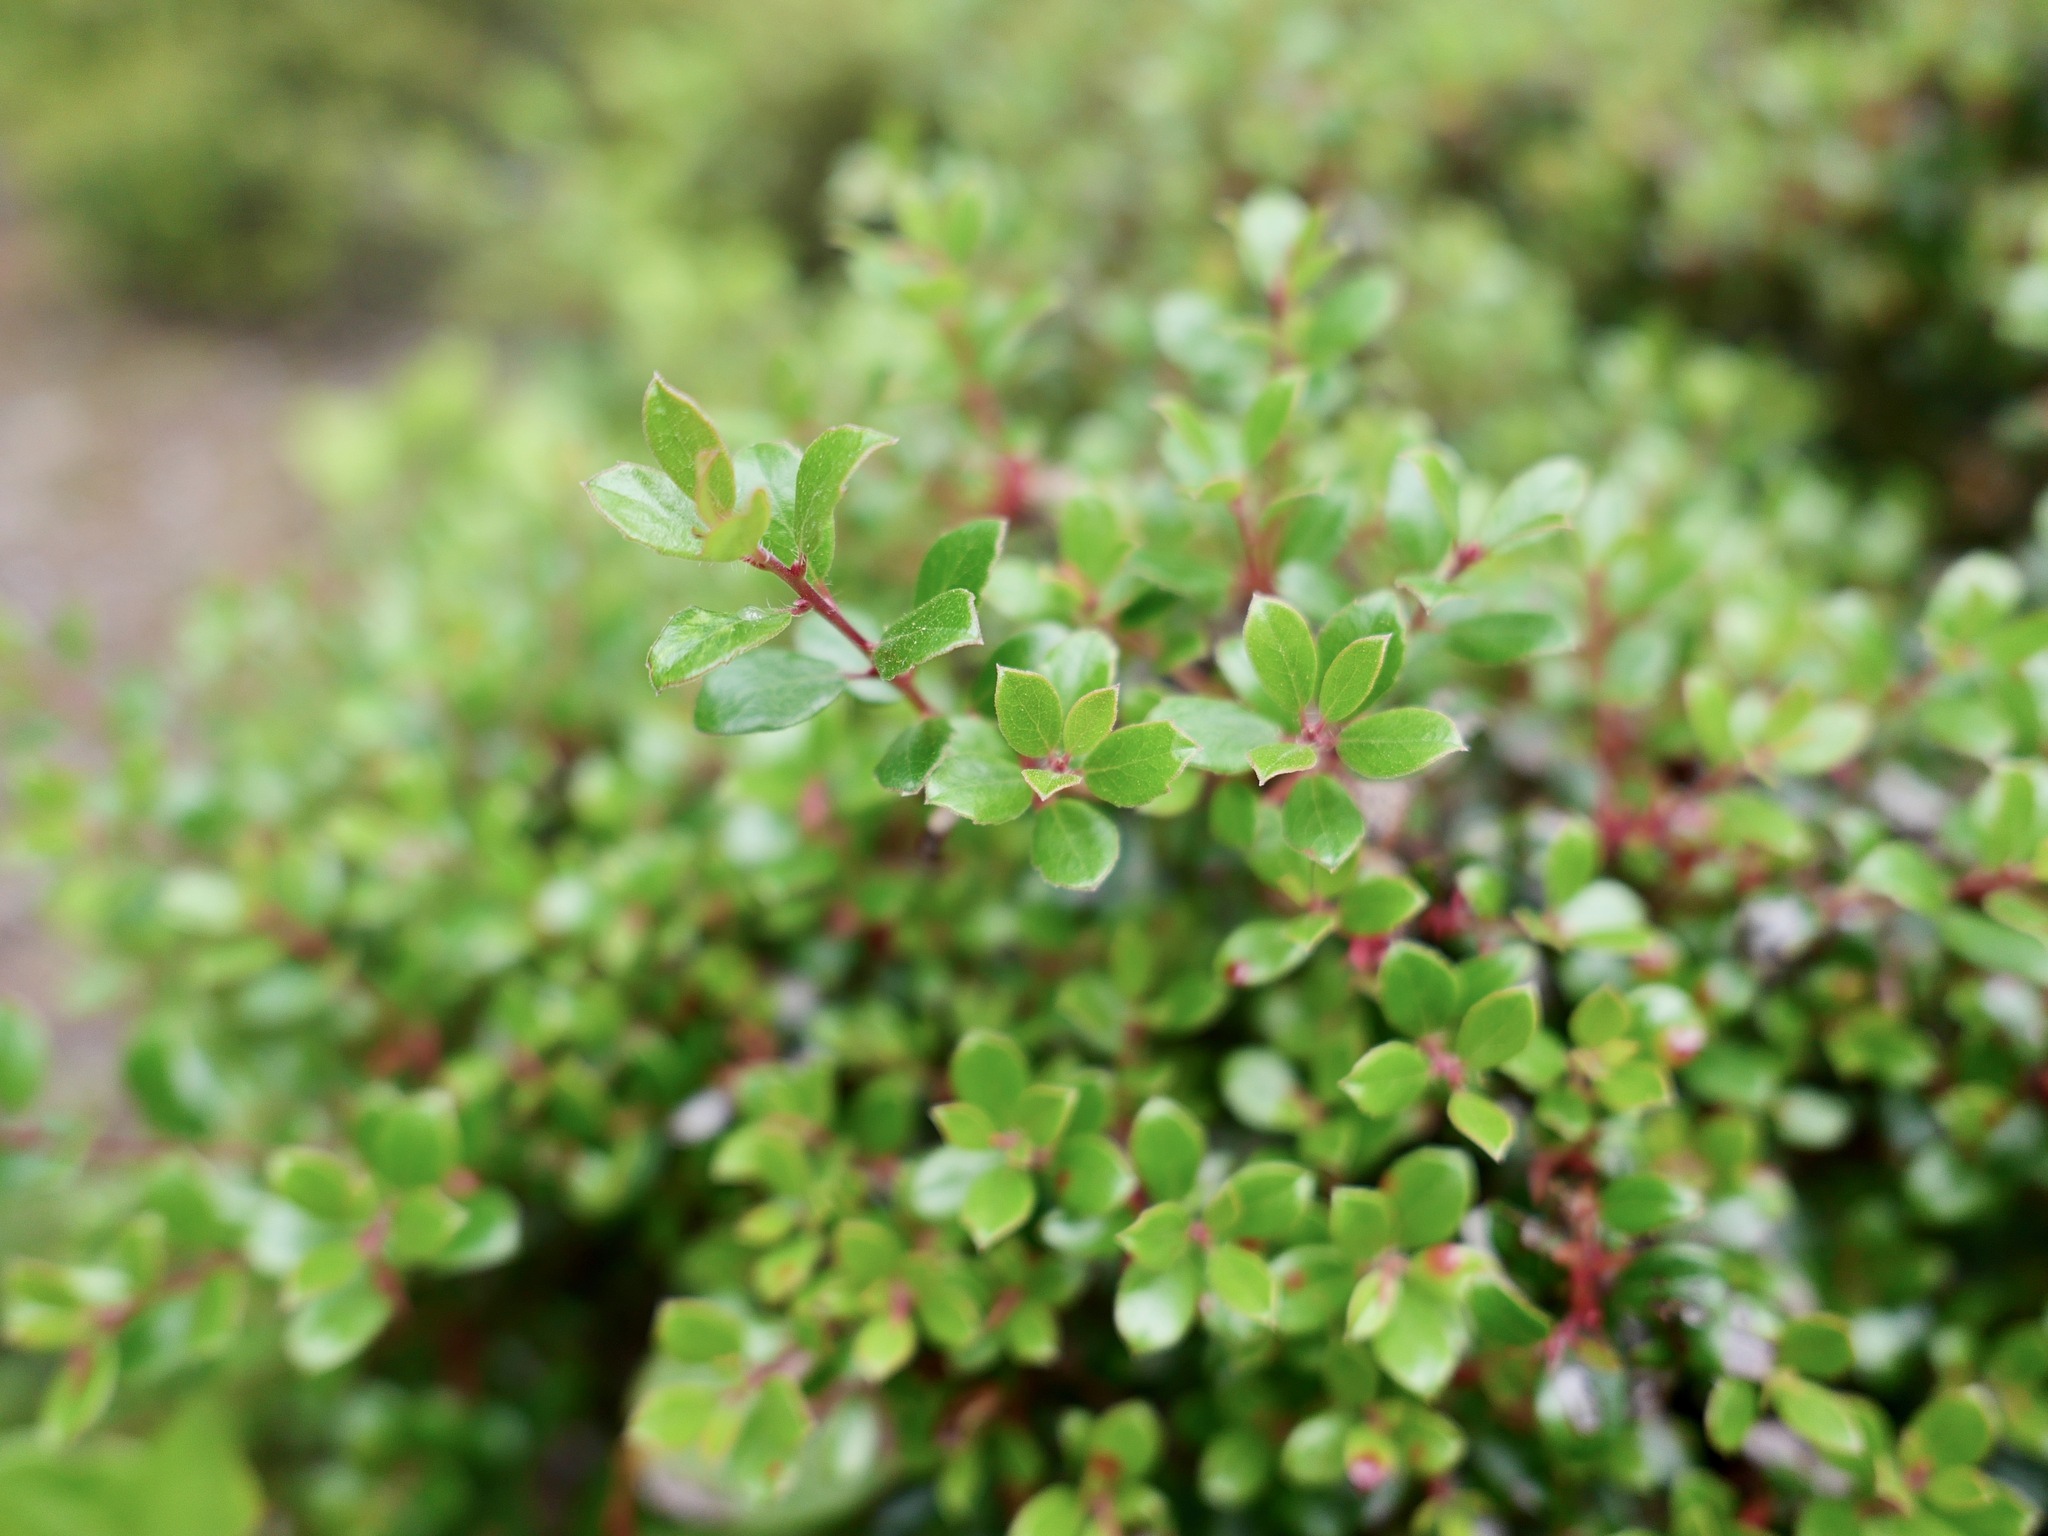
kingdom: Plantae
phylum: Tracheophyta
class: Magnoliopsida
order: Ericales
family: Ericaceae
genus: Arctostaphylos
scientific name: Arctostaphylos nummularia
